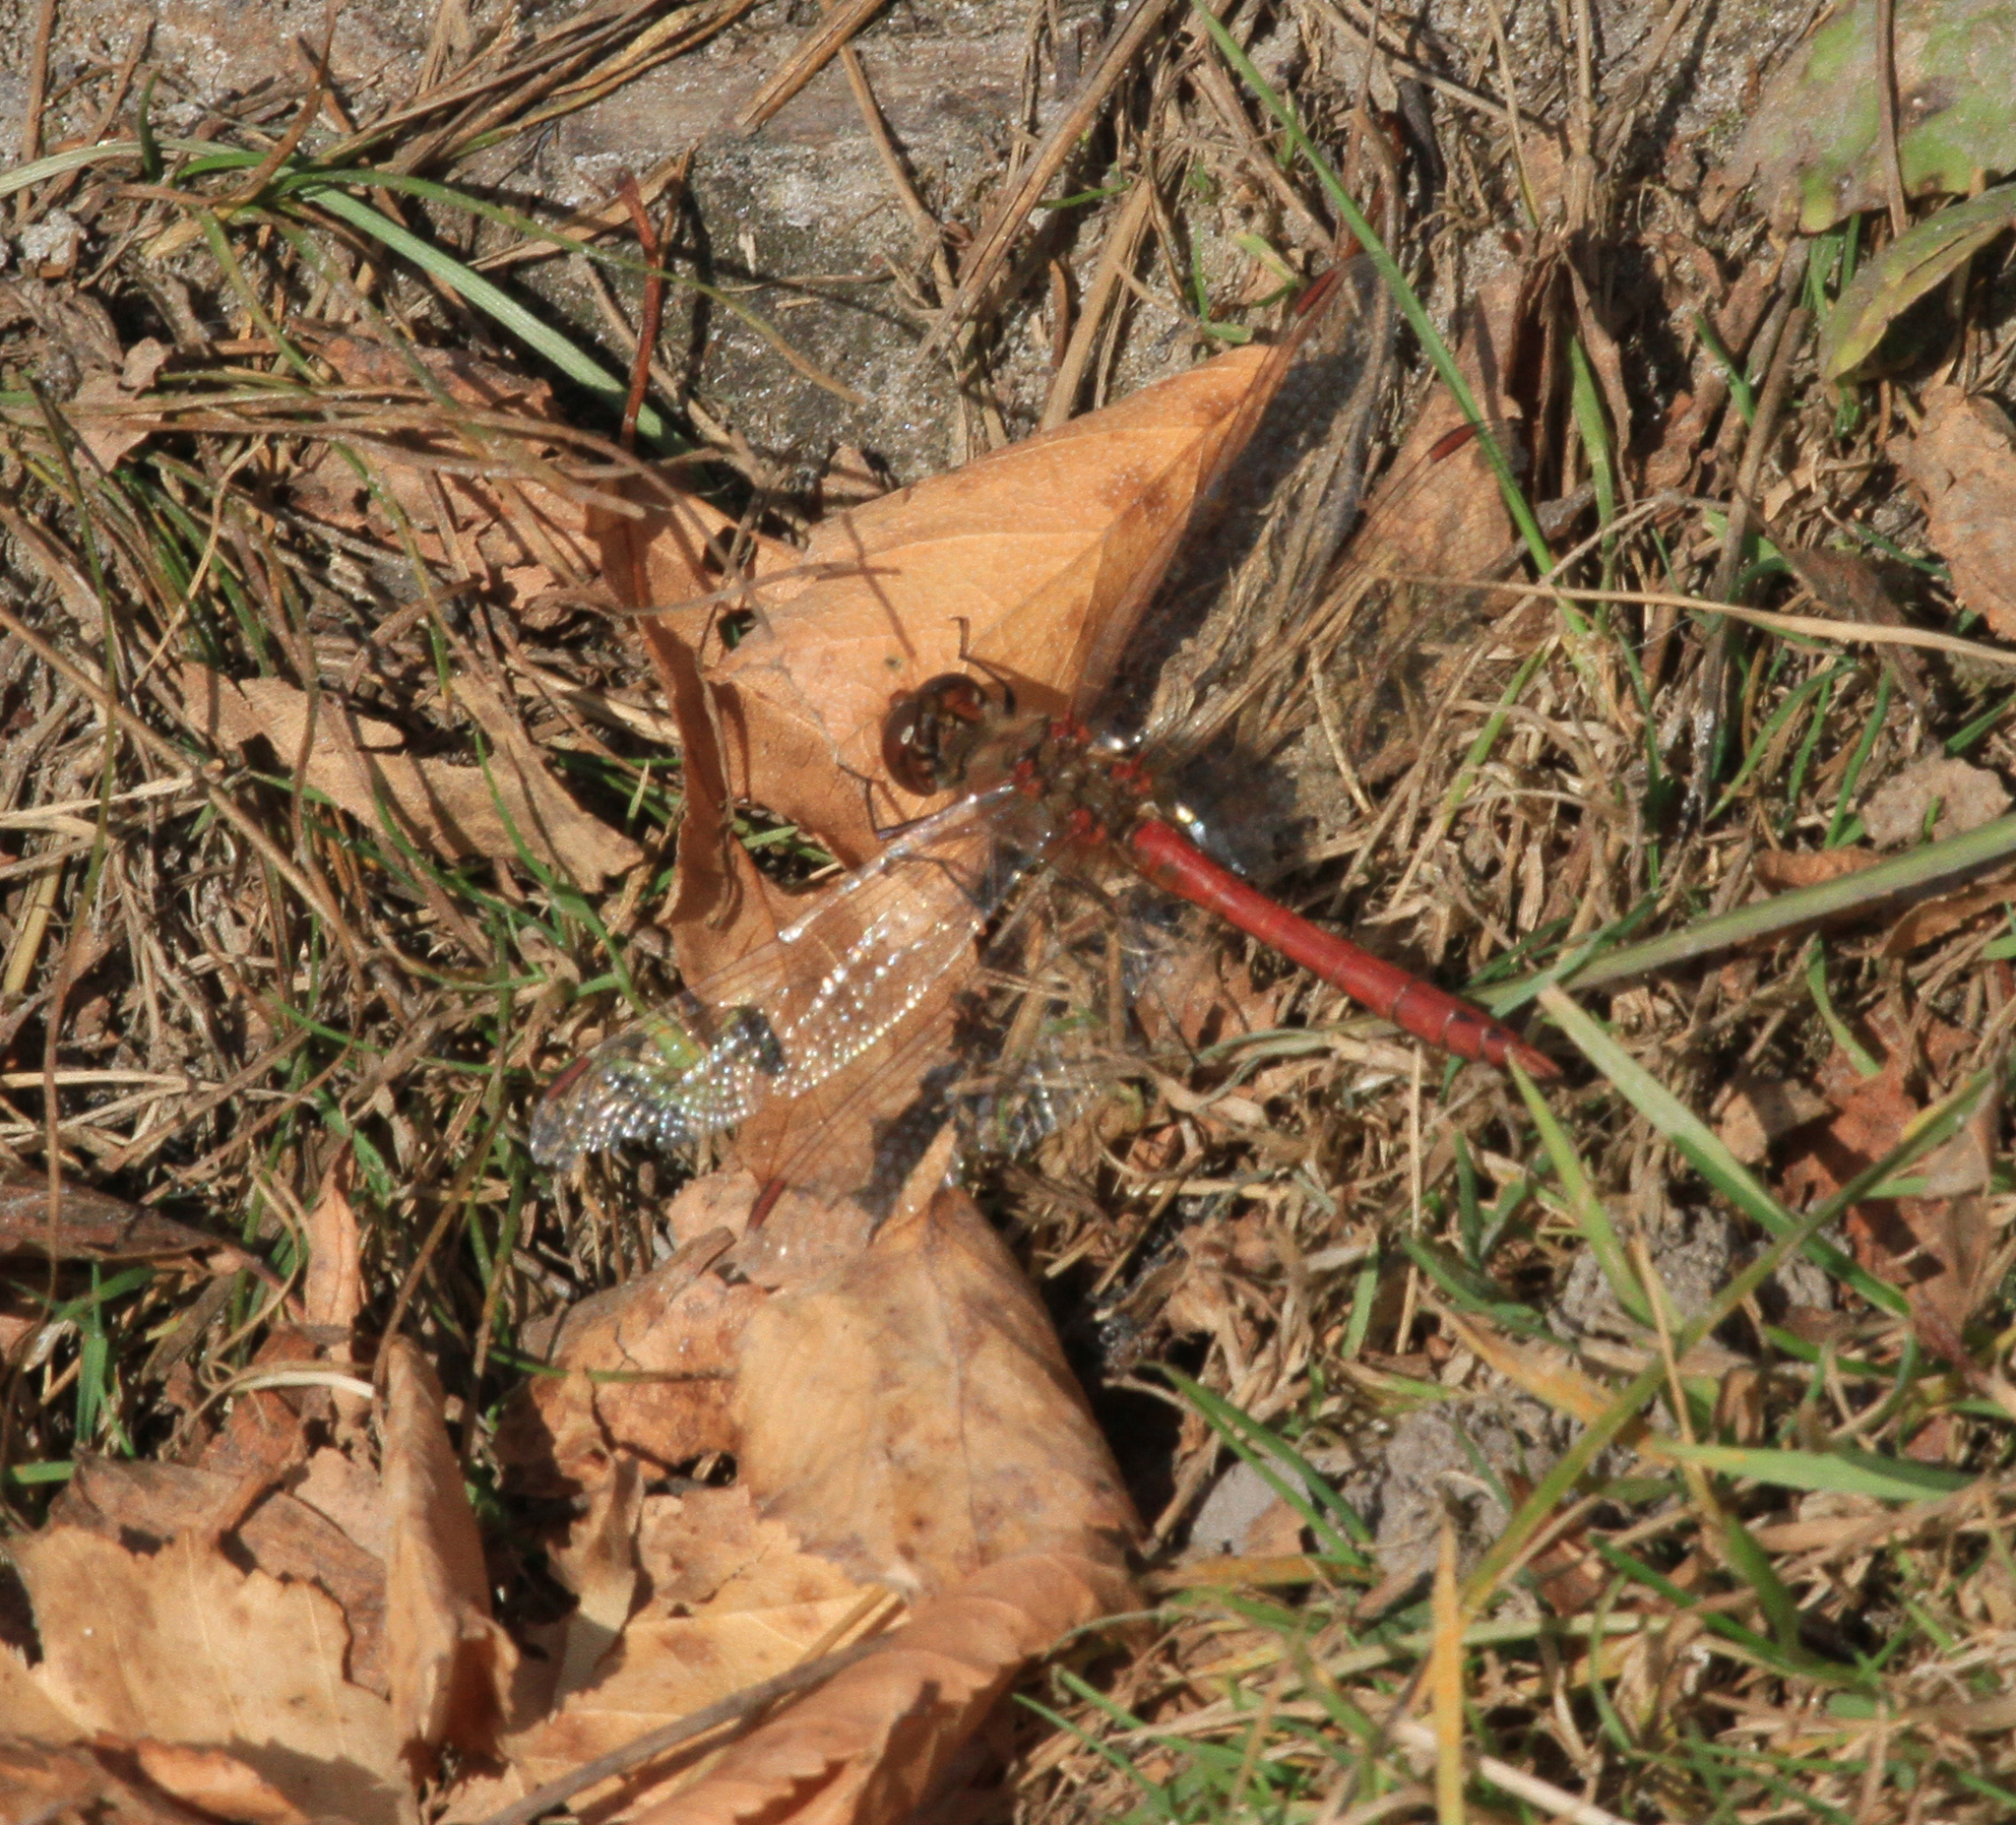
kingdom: Animalia
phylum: Arthropoda
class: Insecta
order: Odonata
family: Libellulidae
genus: Sympetrum
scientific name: Sympetrum vulgatum
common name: Vagrant darter
